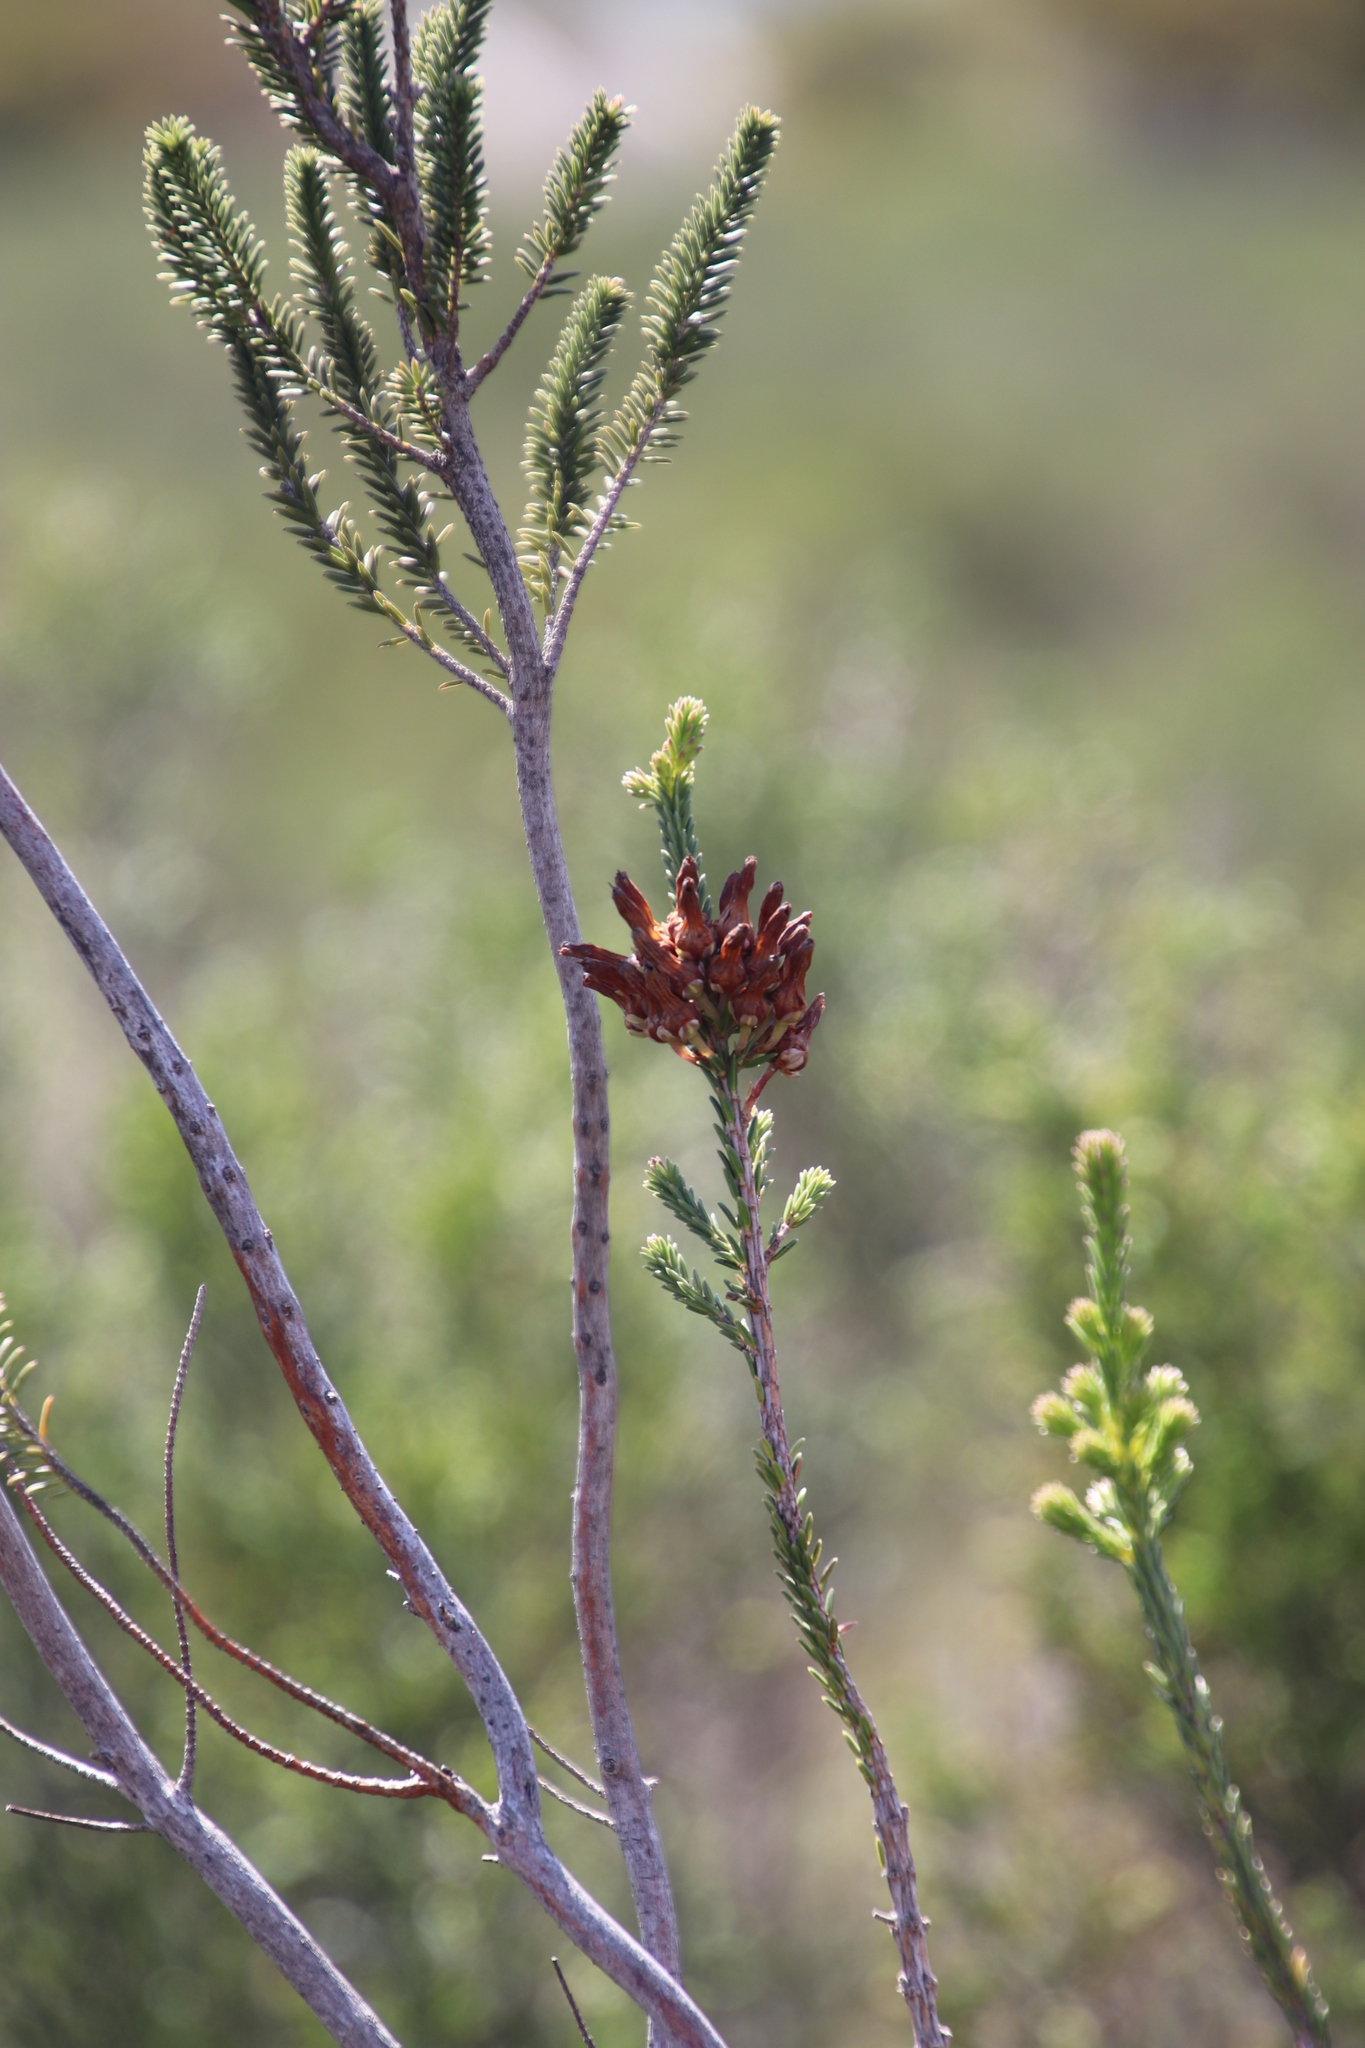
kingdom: Plantae
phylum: Tracheophyta
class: Magnoliopsida
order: Ericales
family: Ericaceae
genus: Erica
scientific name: Erica mammosa
